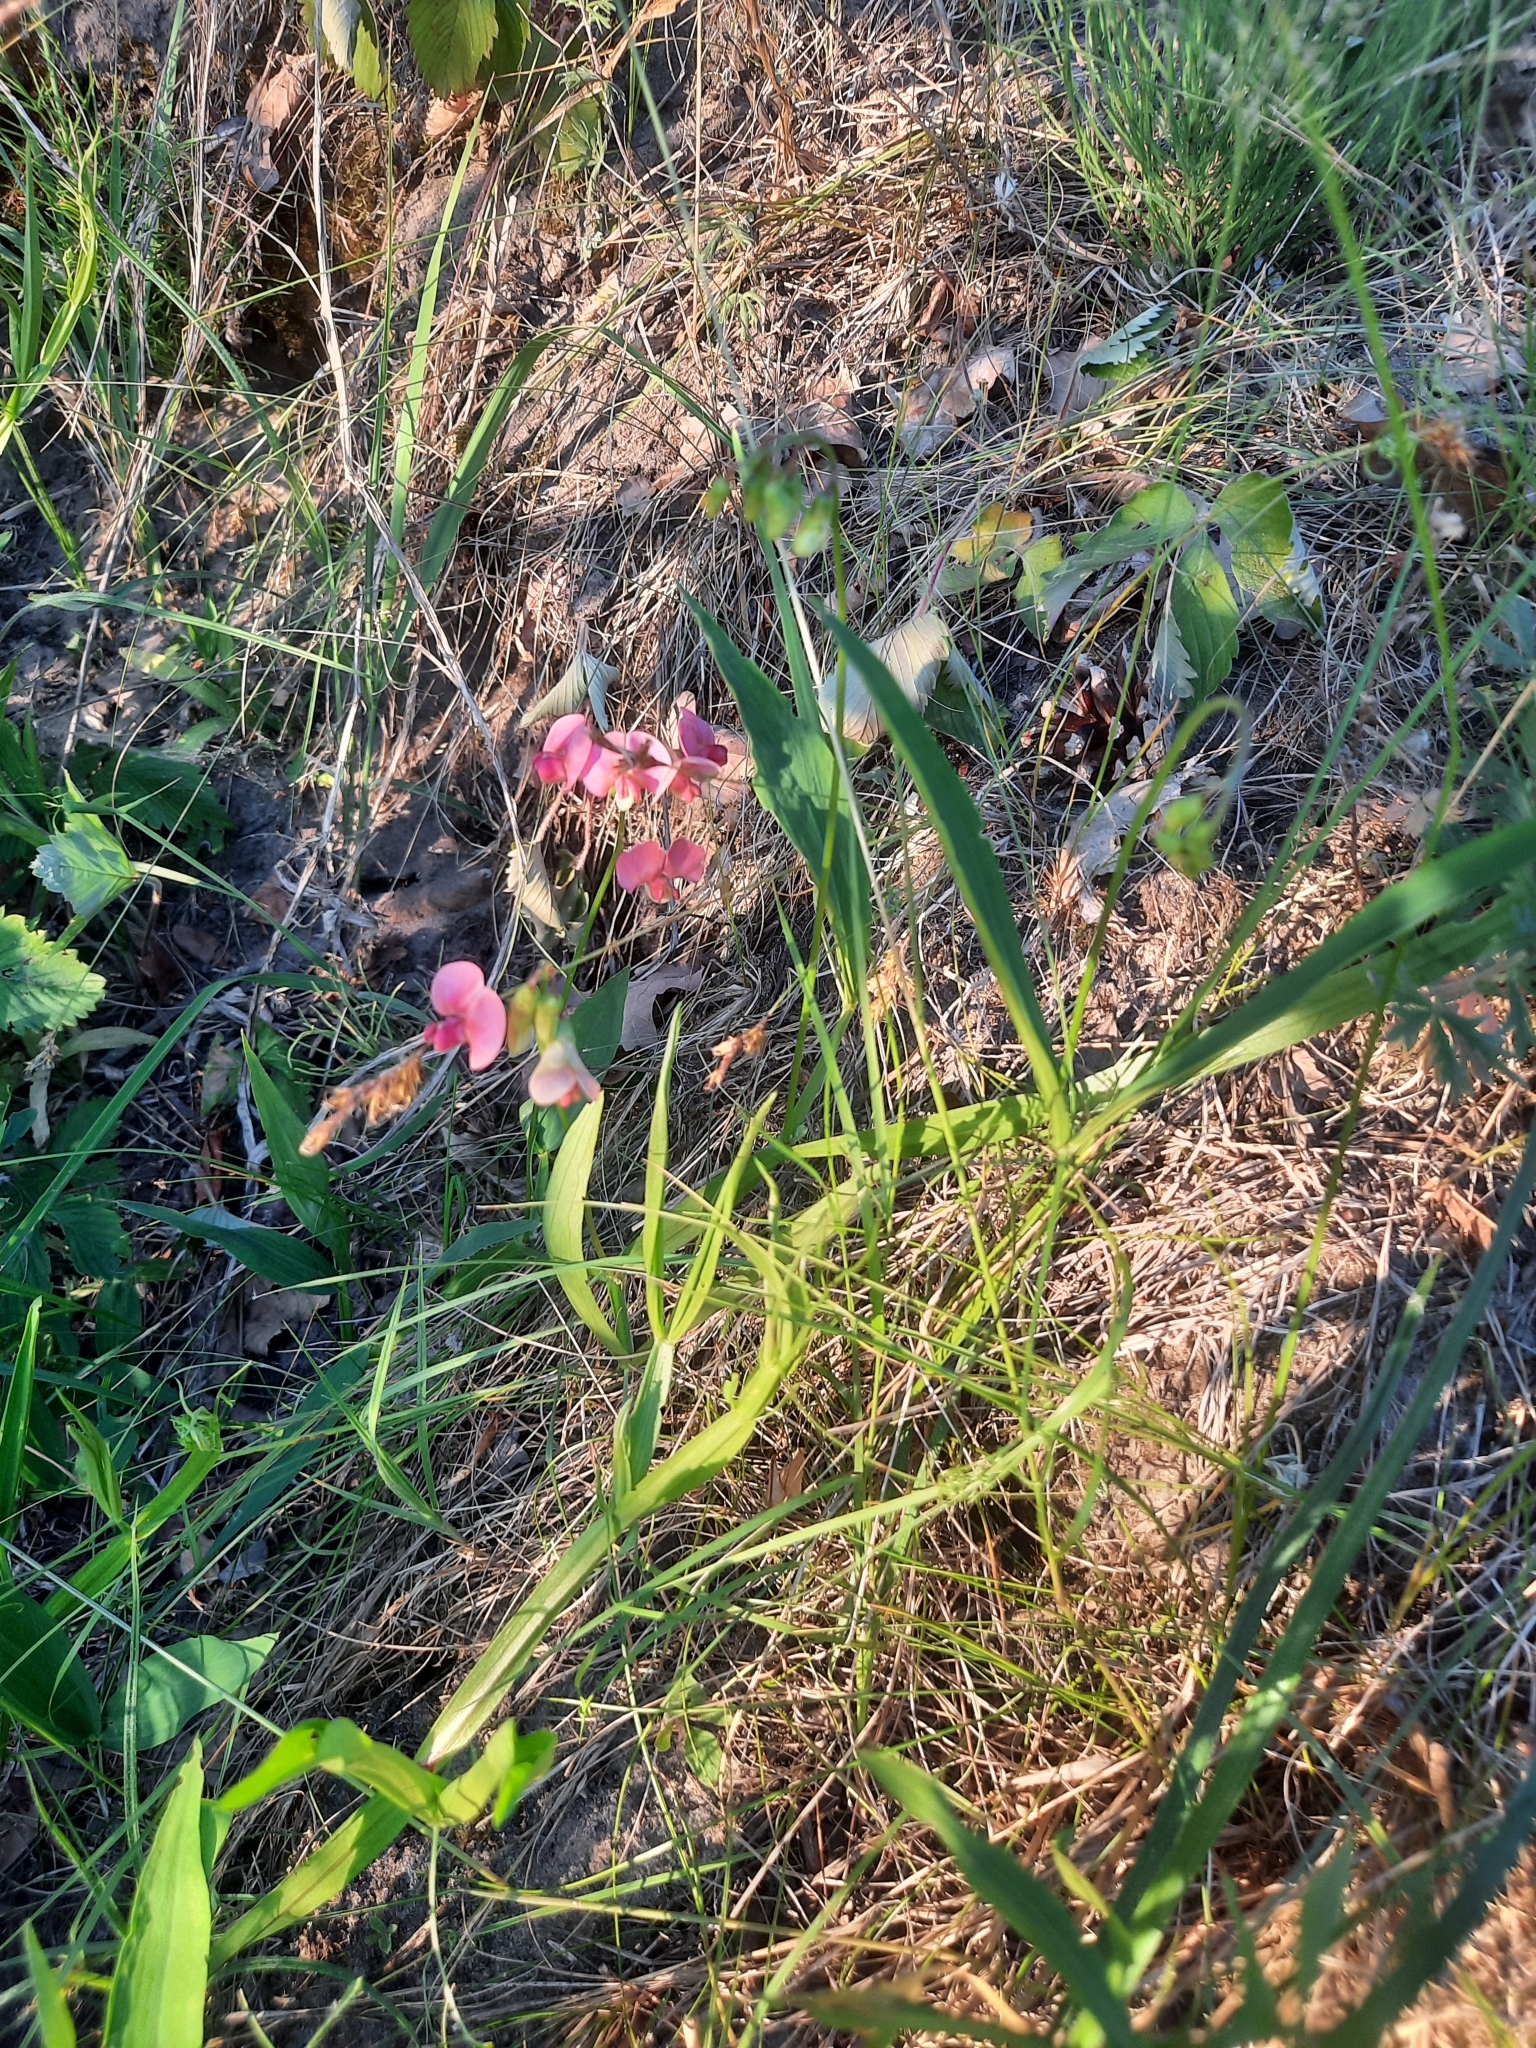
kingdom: Plantae
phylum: Tracheophyta
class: Magnoliopsida
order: Fabales
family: Fabaceae
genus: Lathyrus
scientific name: Lathyrus sylvestris
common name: Flat pea
